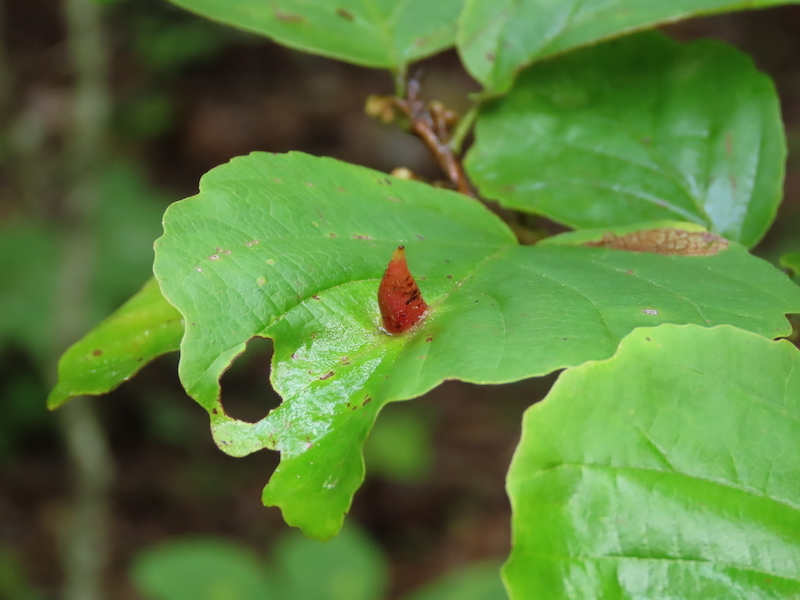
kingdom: Animalia
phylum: Arthropoda
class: Insecta
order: Hemiptera
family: Aphididae
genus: Hormaphis
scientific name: Hormaphis hamamelidis
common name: Witch-hazel cone gall aphid
